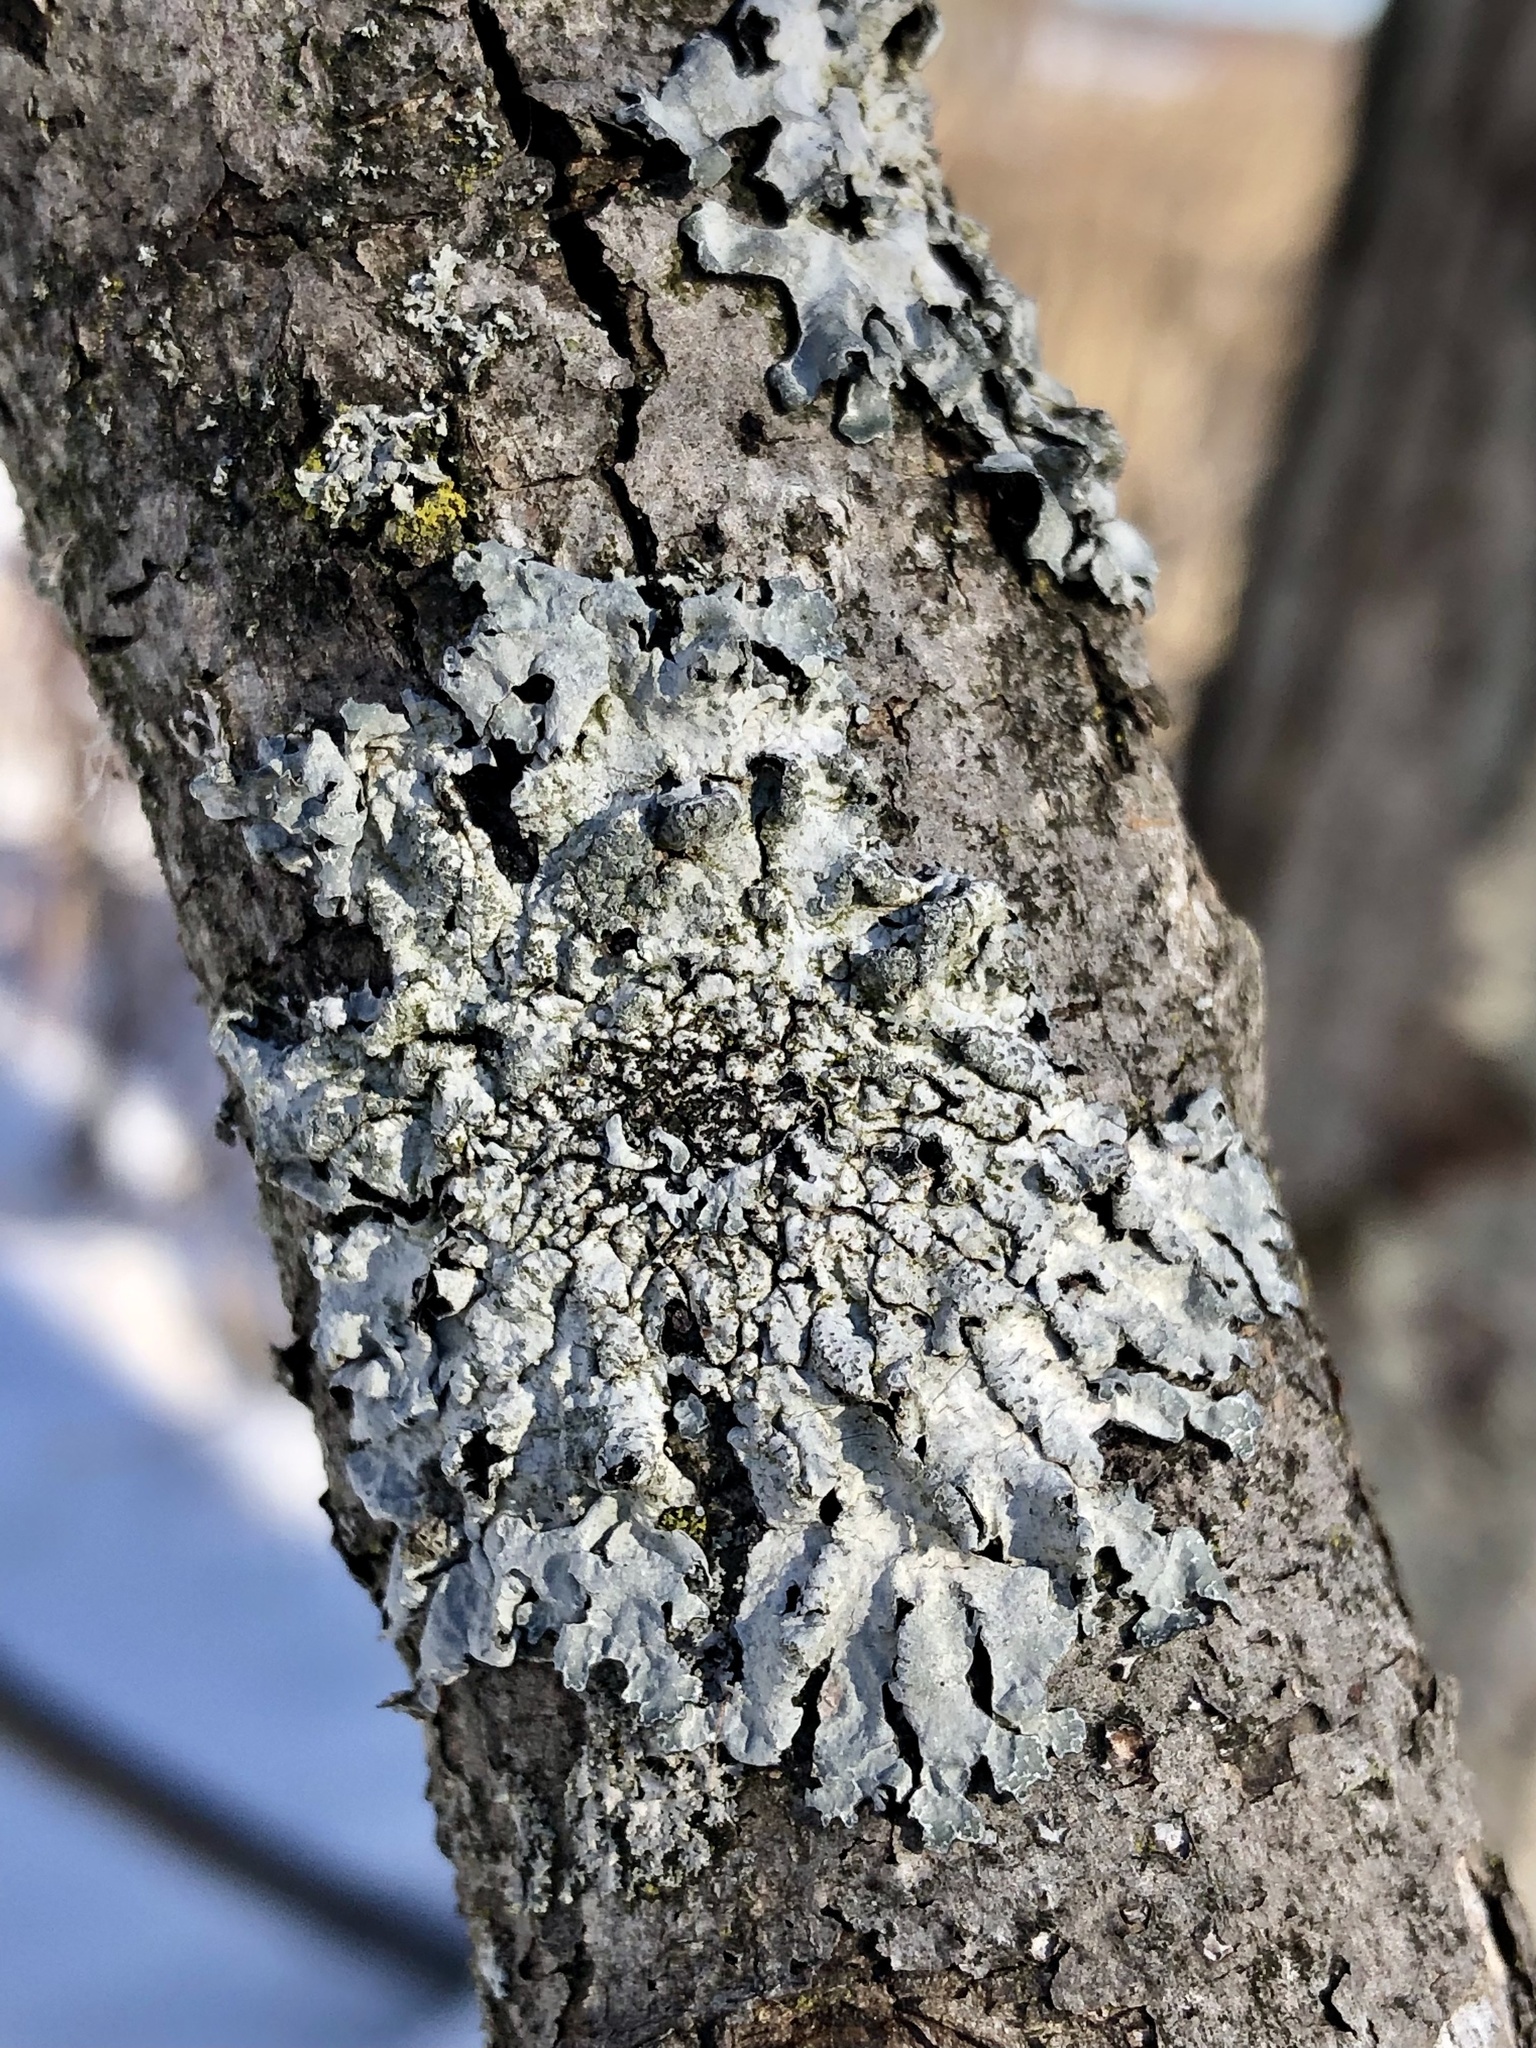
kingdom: Fungi
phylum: Ascomycota
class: Lecanoromycetes
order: Lecanorales
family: Parmeliaceae
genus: Parmelia
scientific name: Parmelia sulcata
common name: Netted shield lichen
